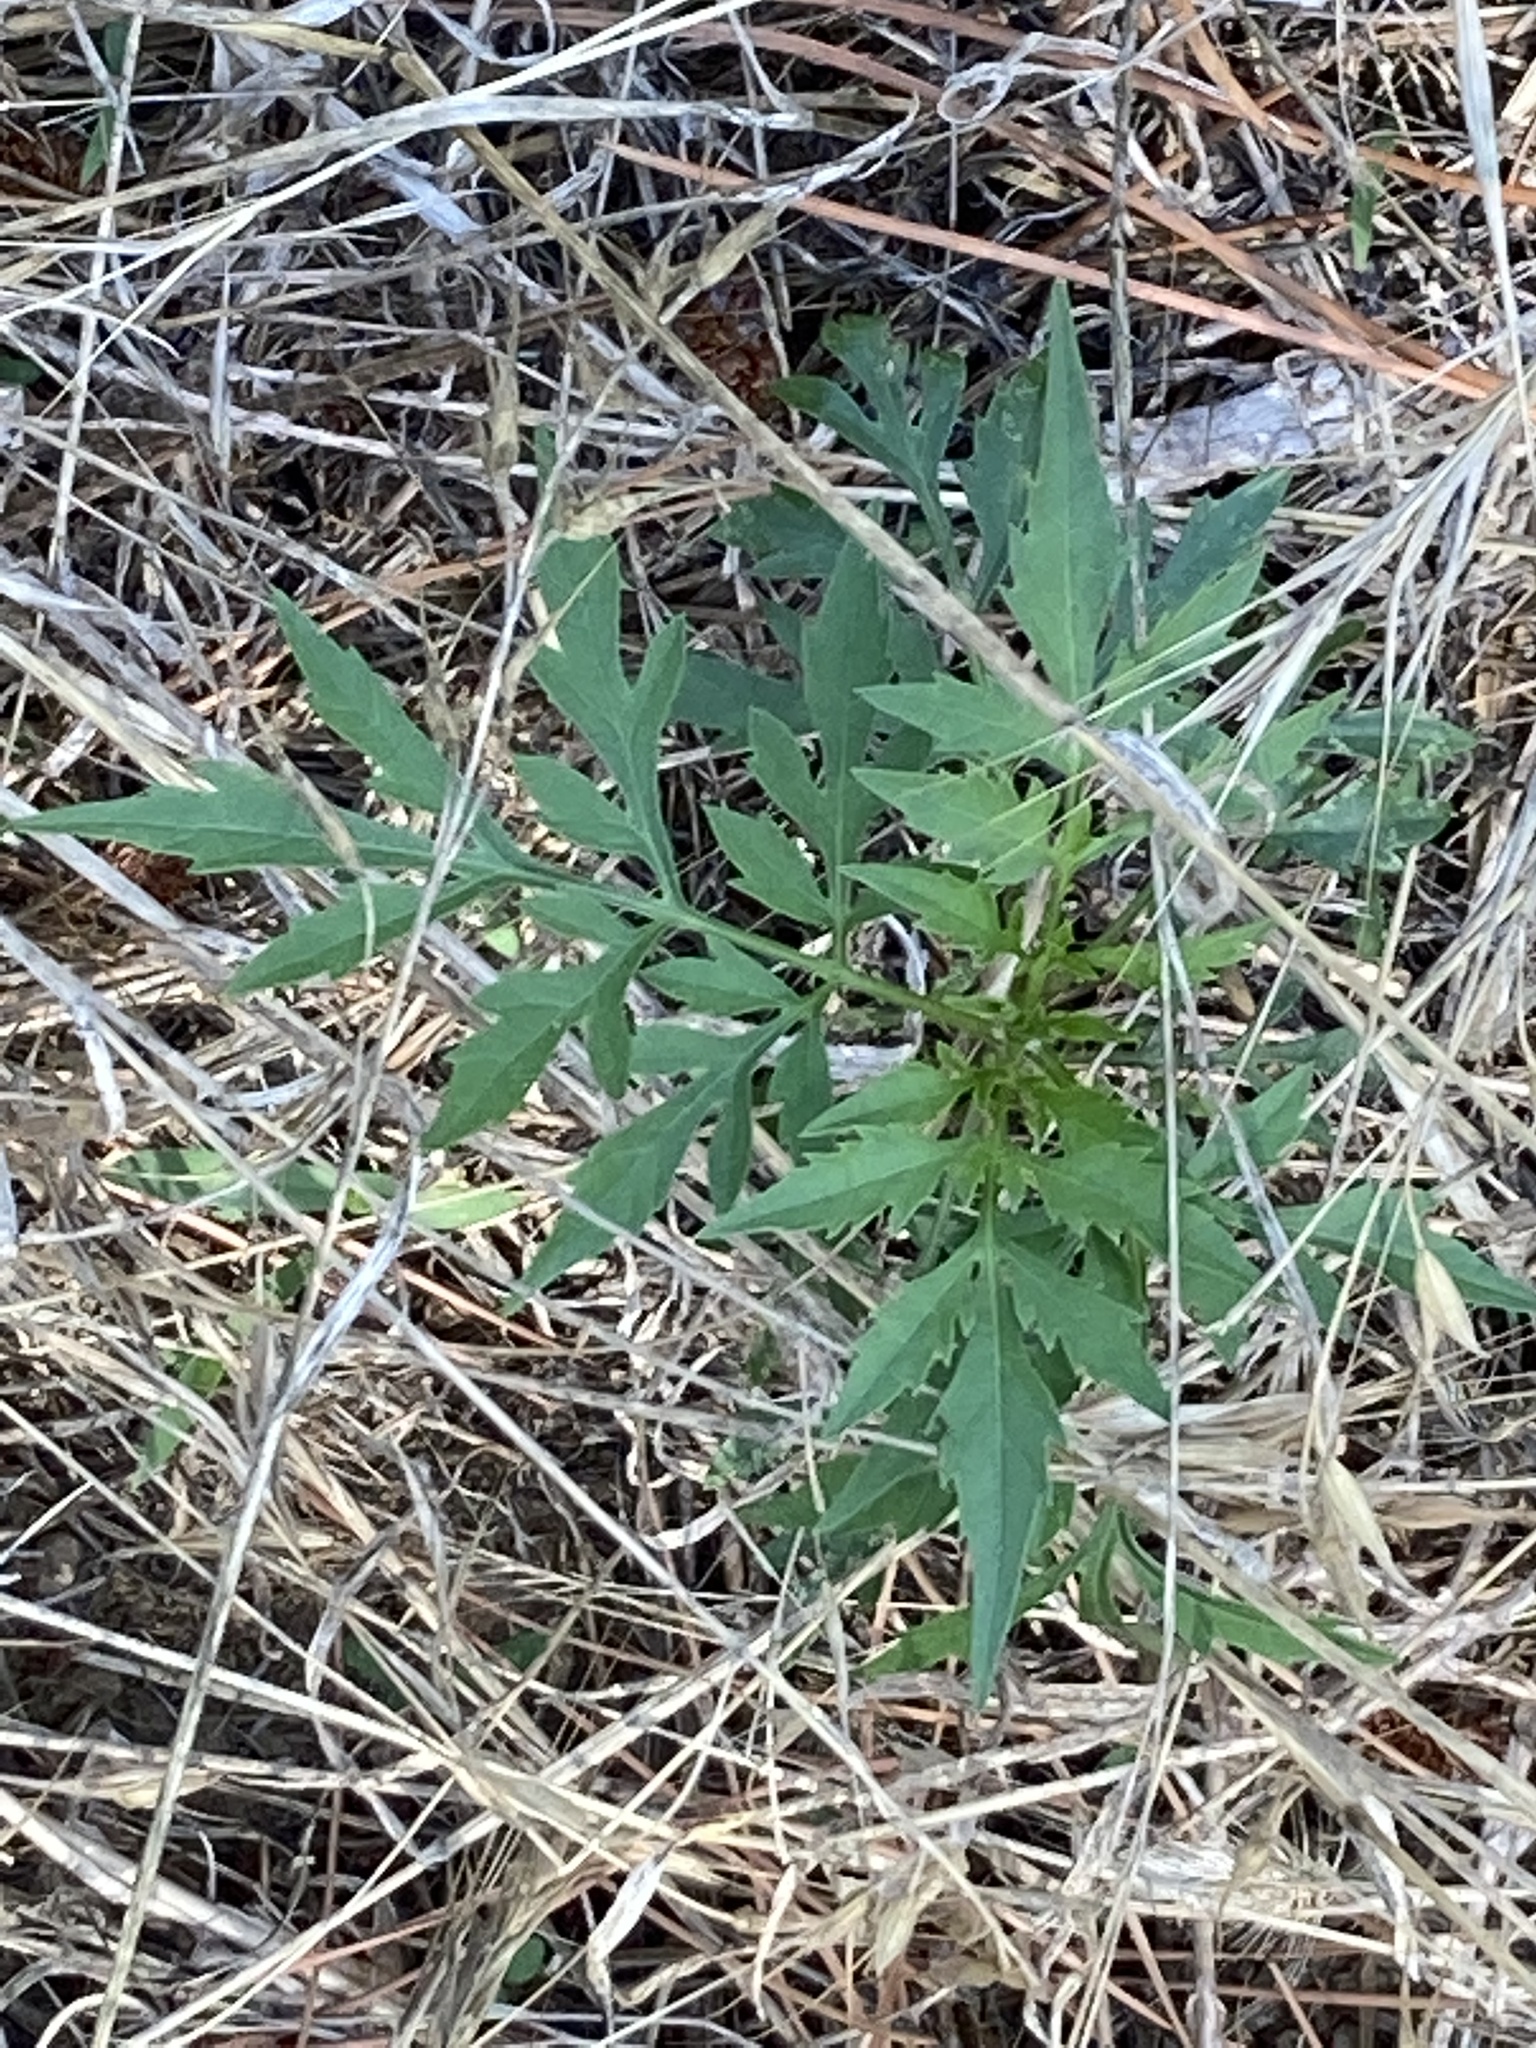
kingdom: Plantae
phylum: Tracheophyta
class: Magnoliopsida
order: Asterales
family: Asteraceae
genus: Bidens
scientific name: Bidens subalternans
